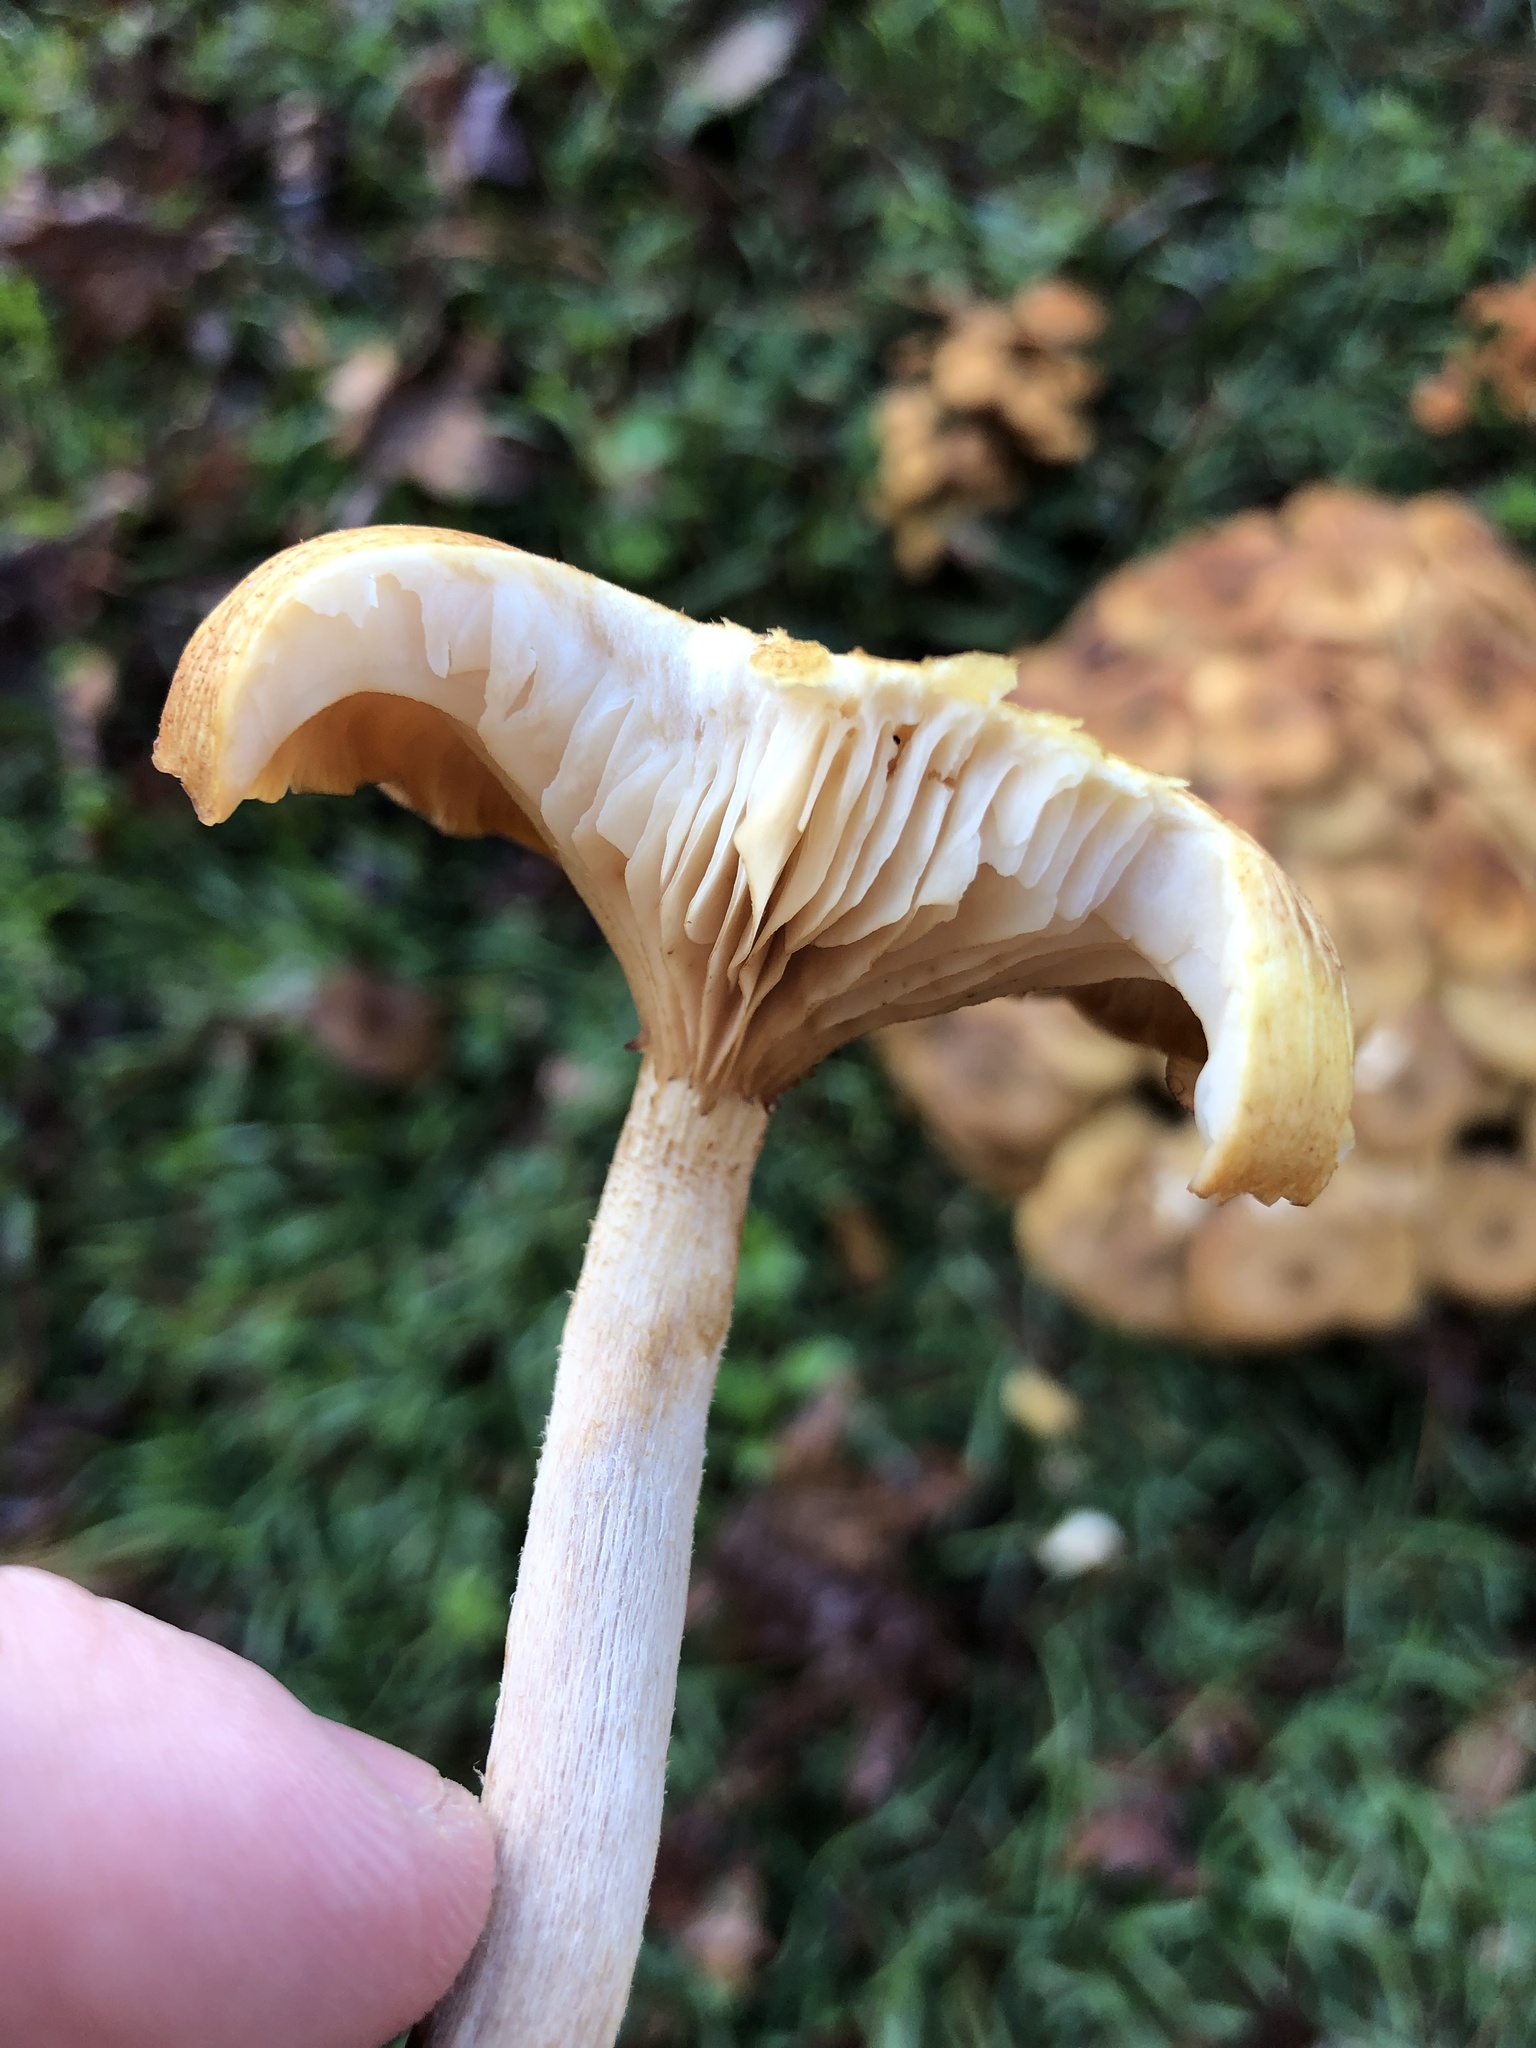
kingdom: Fungi
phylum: Basidiomycota
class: Agaricomycetes
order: Agaricales
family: Physalacriaceae
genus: Desarmillaria
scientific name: Desarmillaria caespitosa
